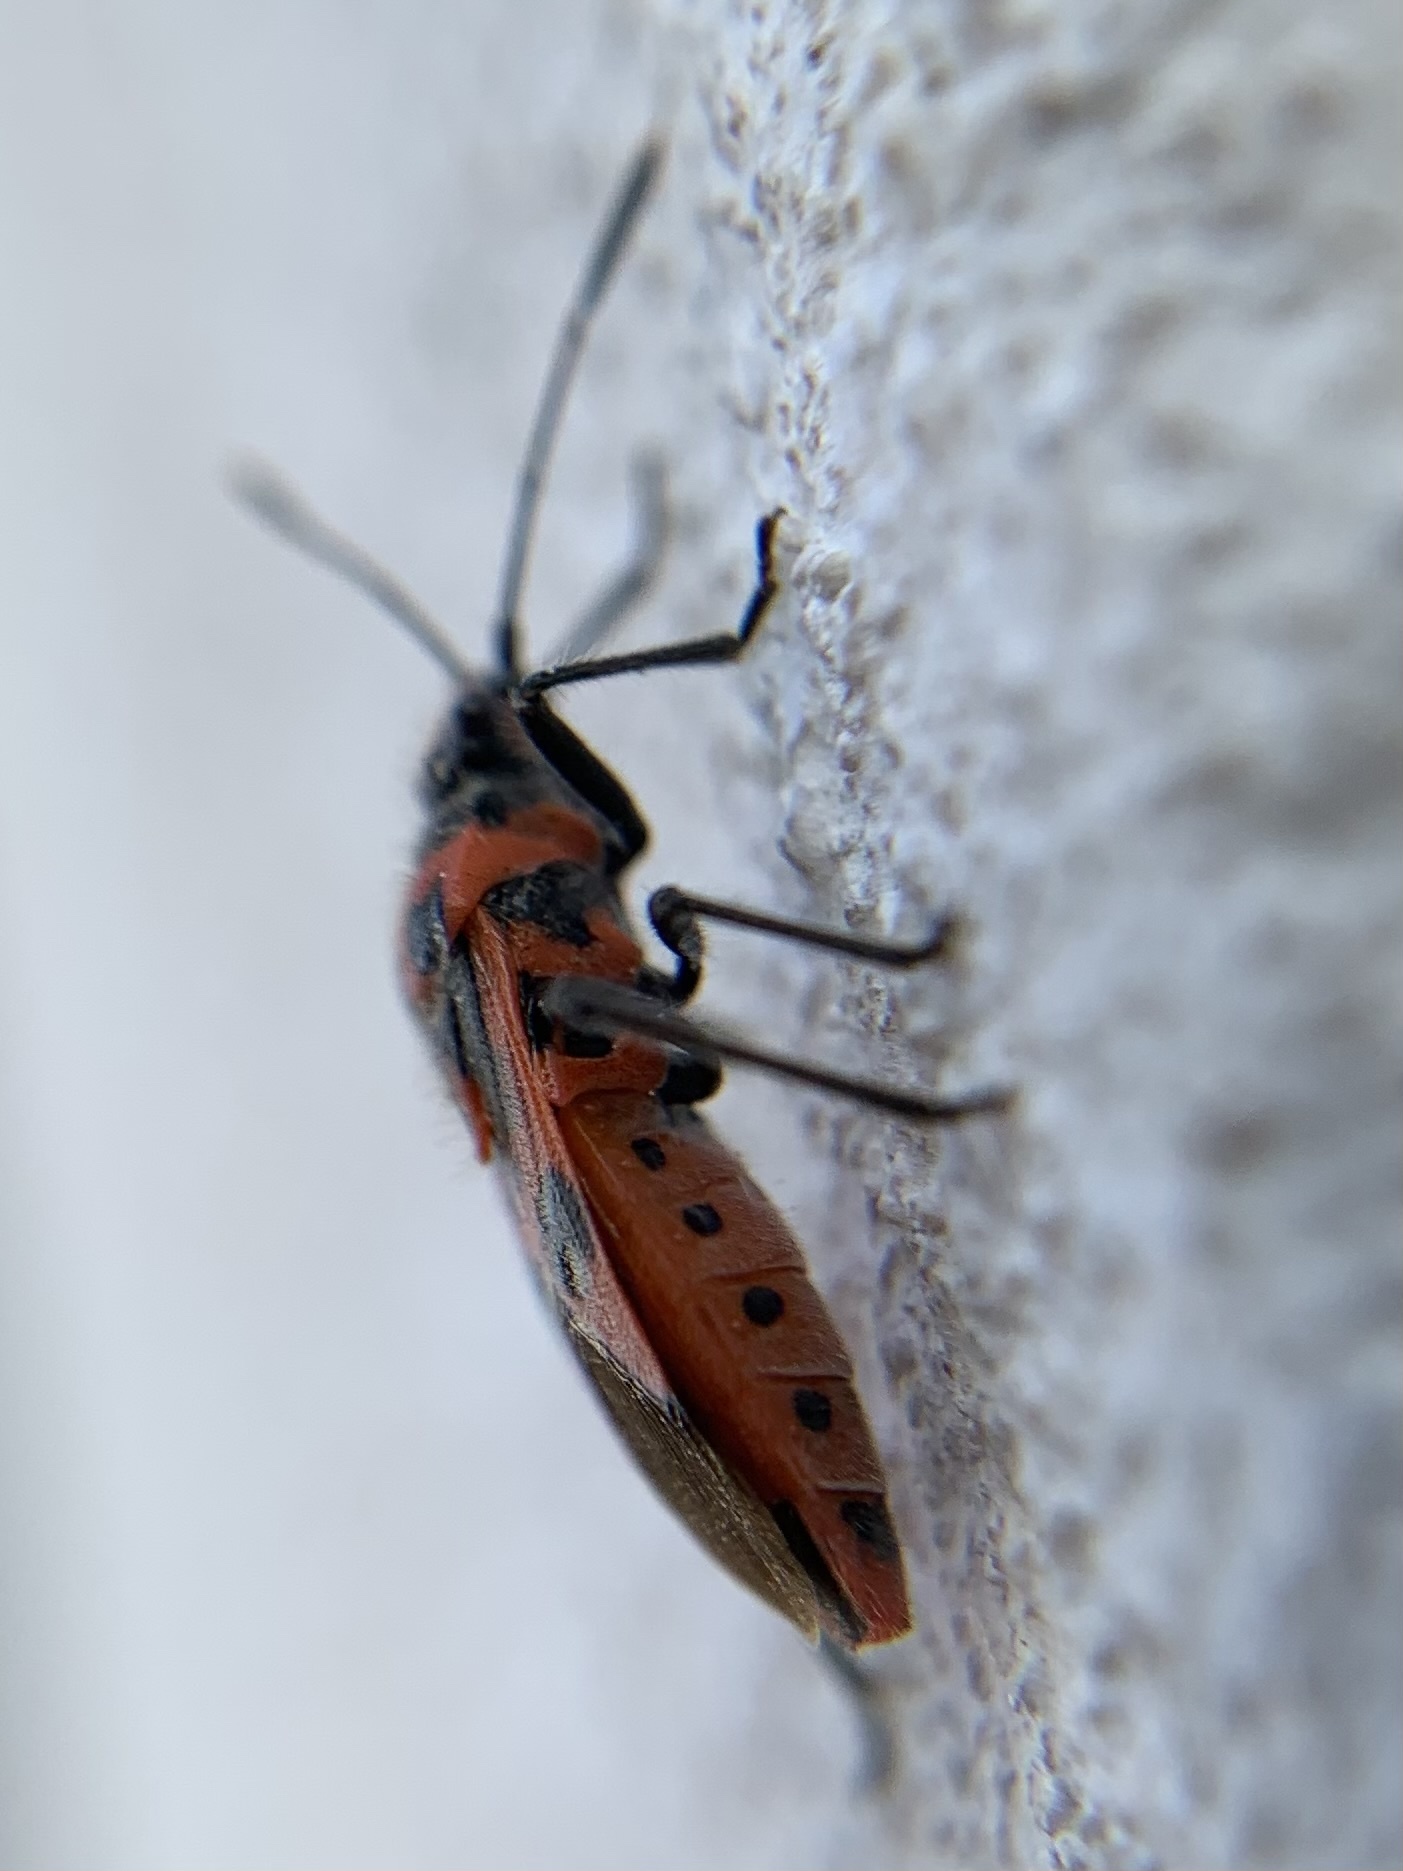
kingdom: Animalia
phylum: Arthropoda
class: Insecta
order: Hemiptera
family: Rhopalidae
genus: Corizus
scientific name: Corizus hyoscyami
